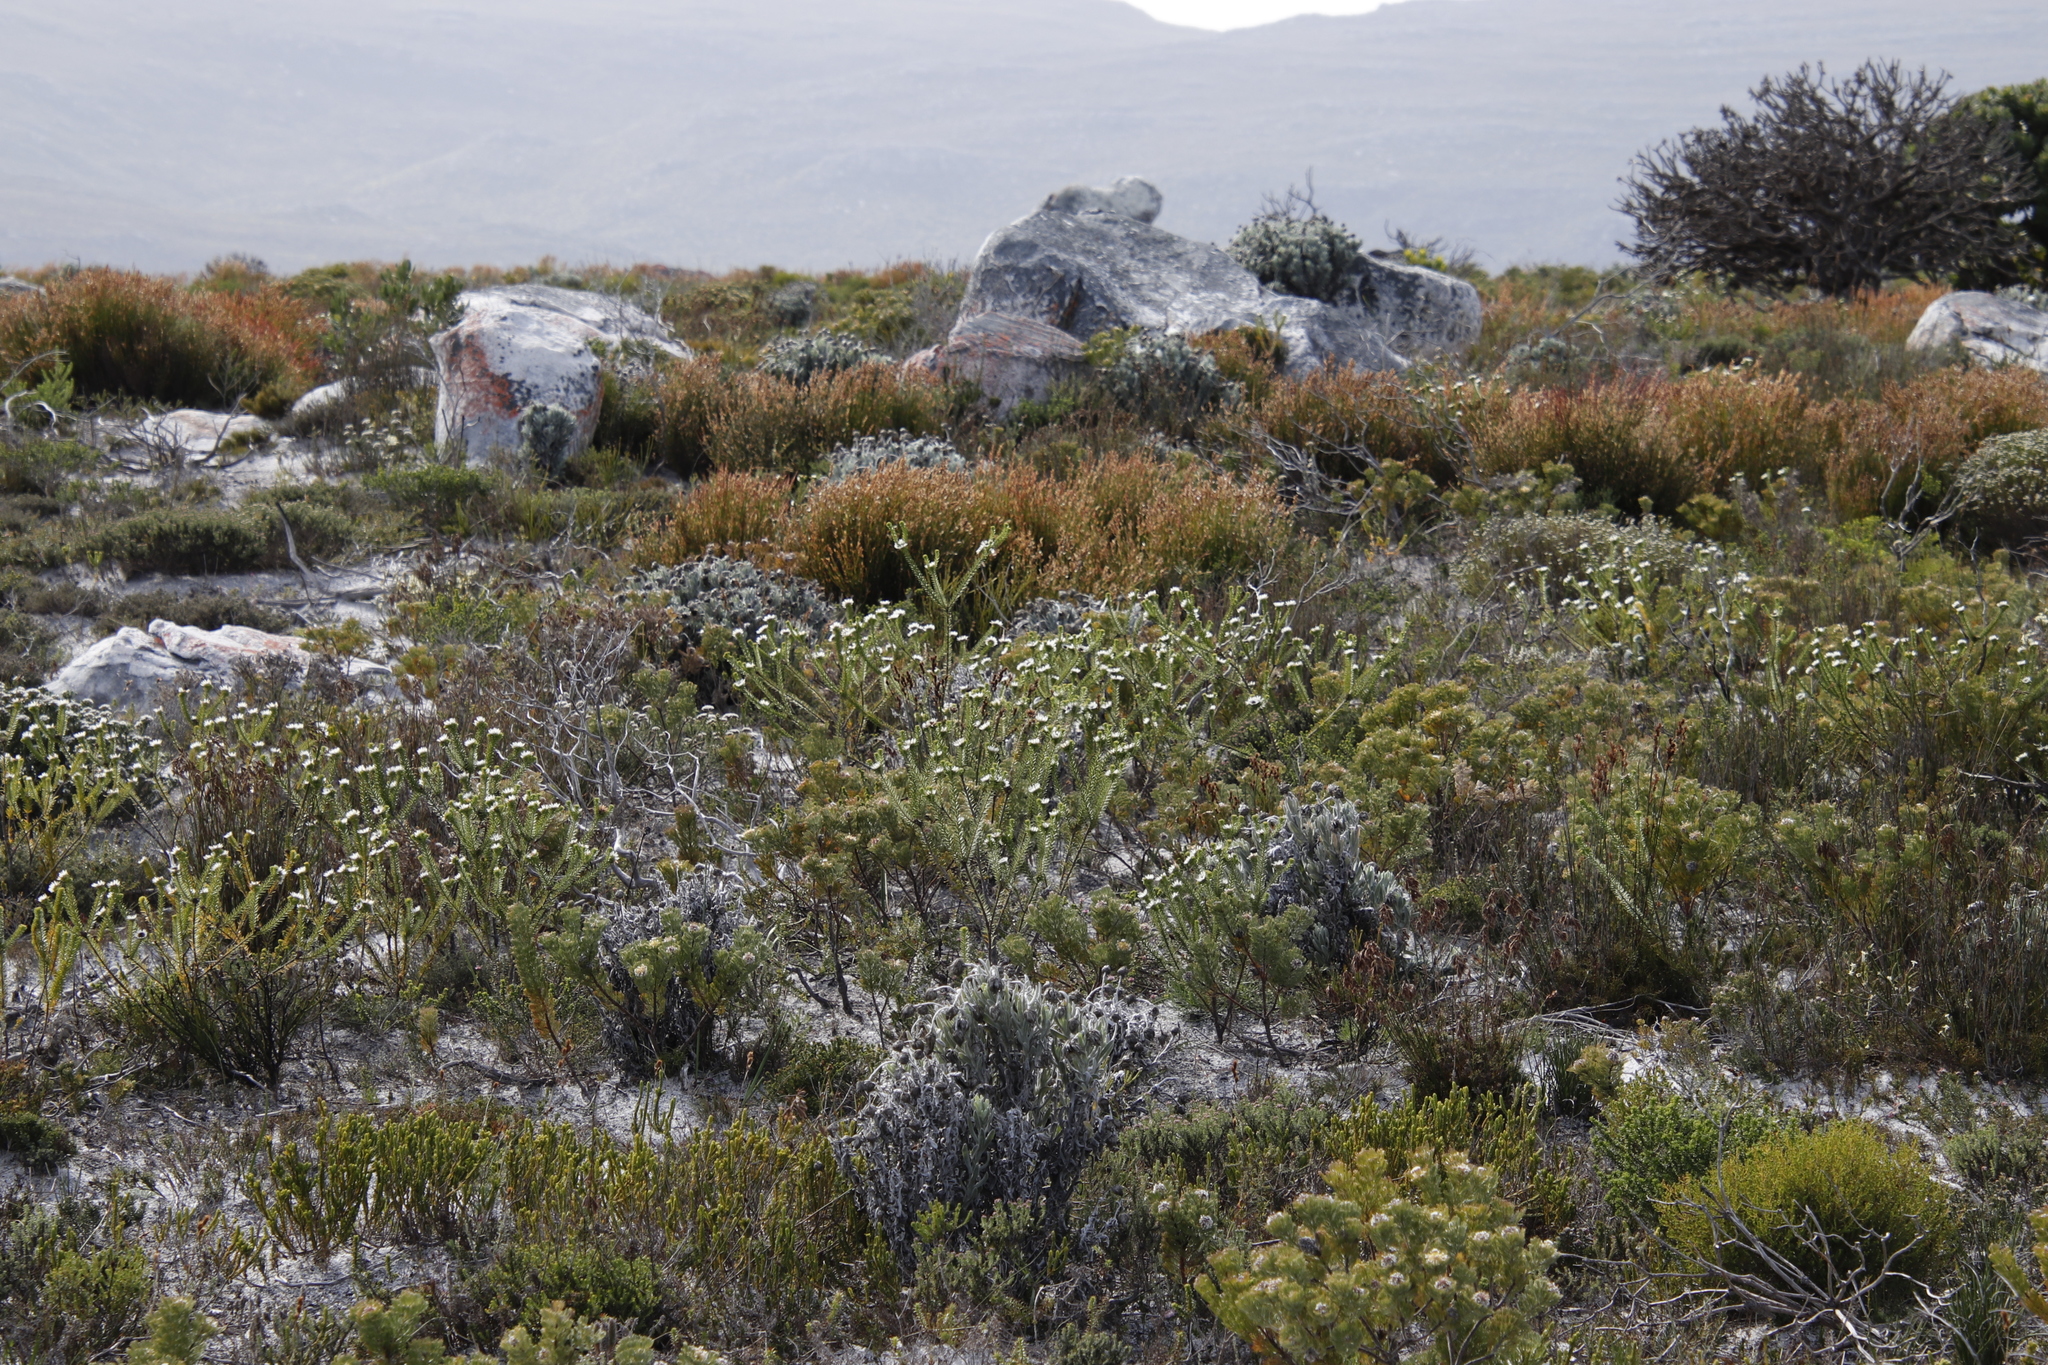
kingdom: Plantae
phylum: Tracheophyta
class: Magnoliopsida
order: Bruniales
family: Bruniaceae
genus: Staavia
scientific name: Staavia dodii
